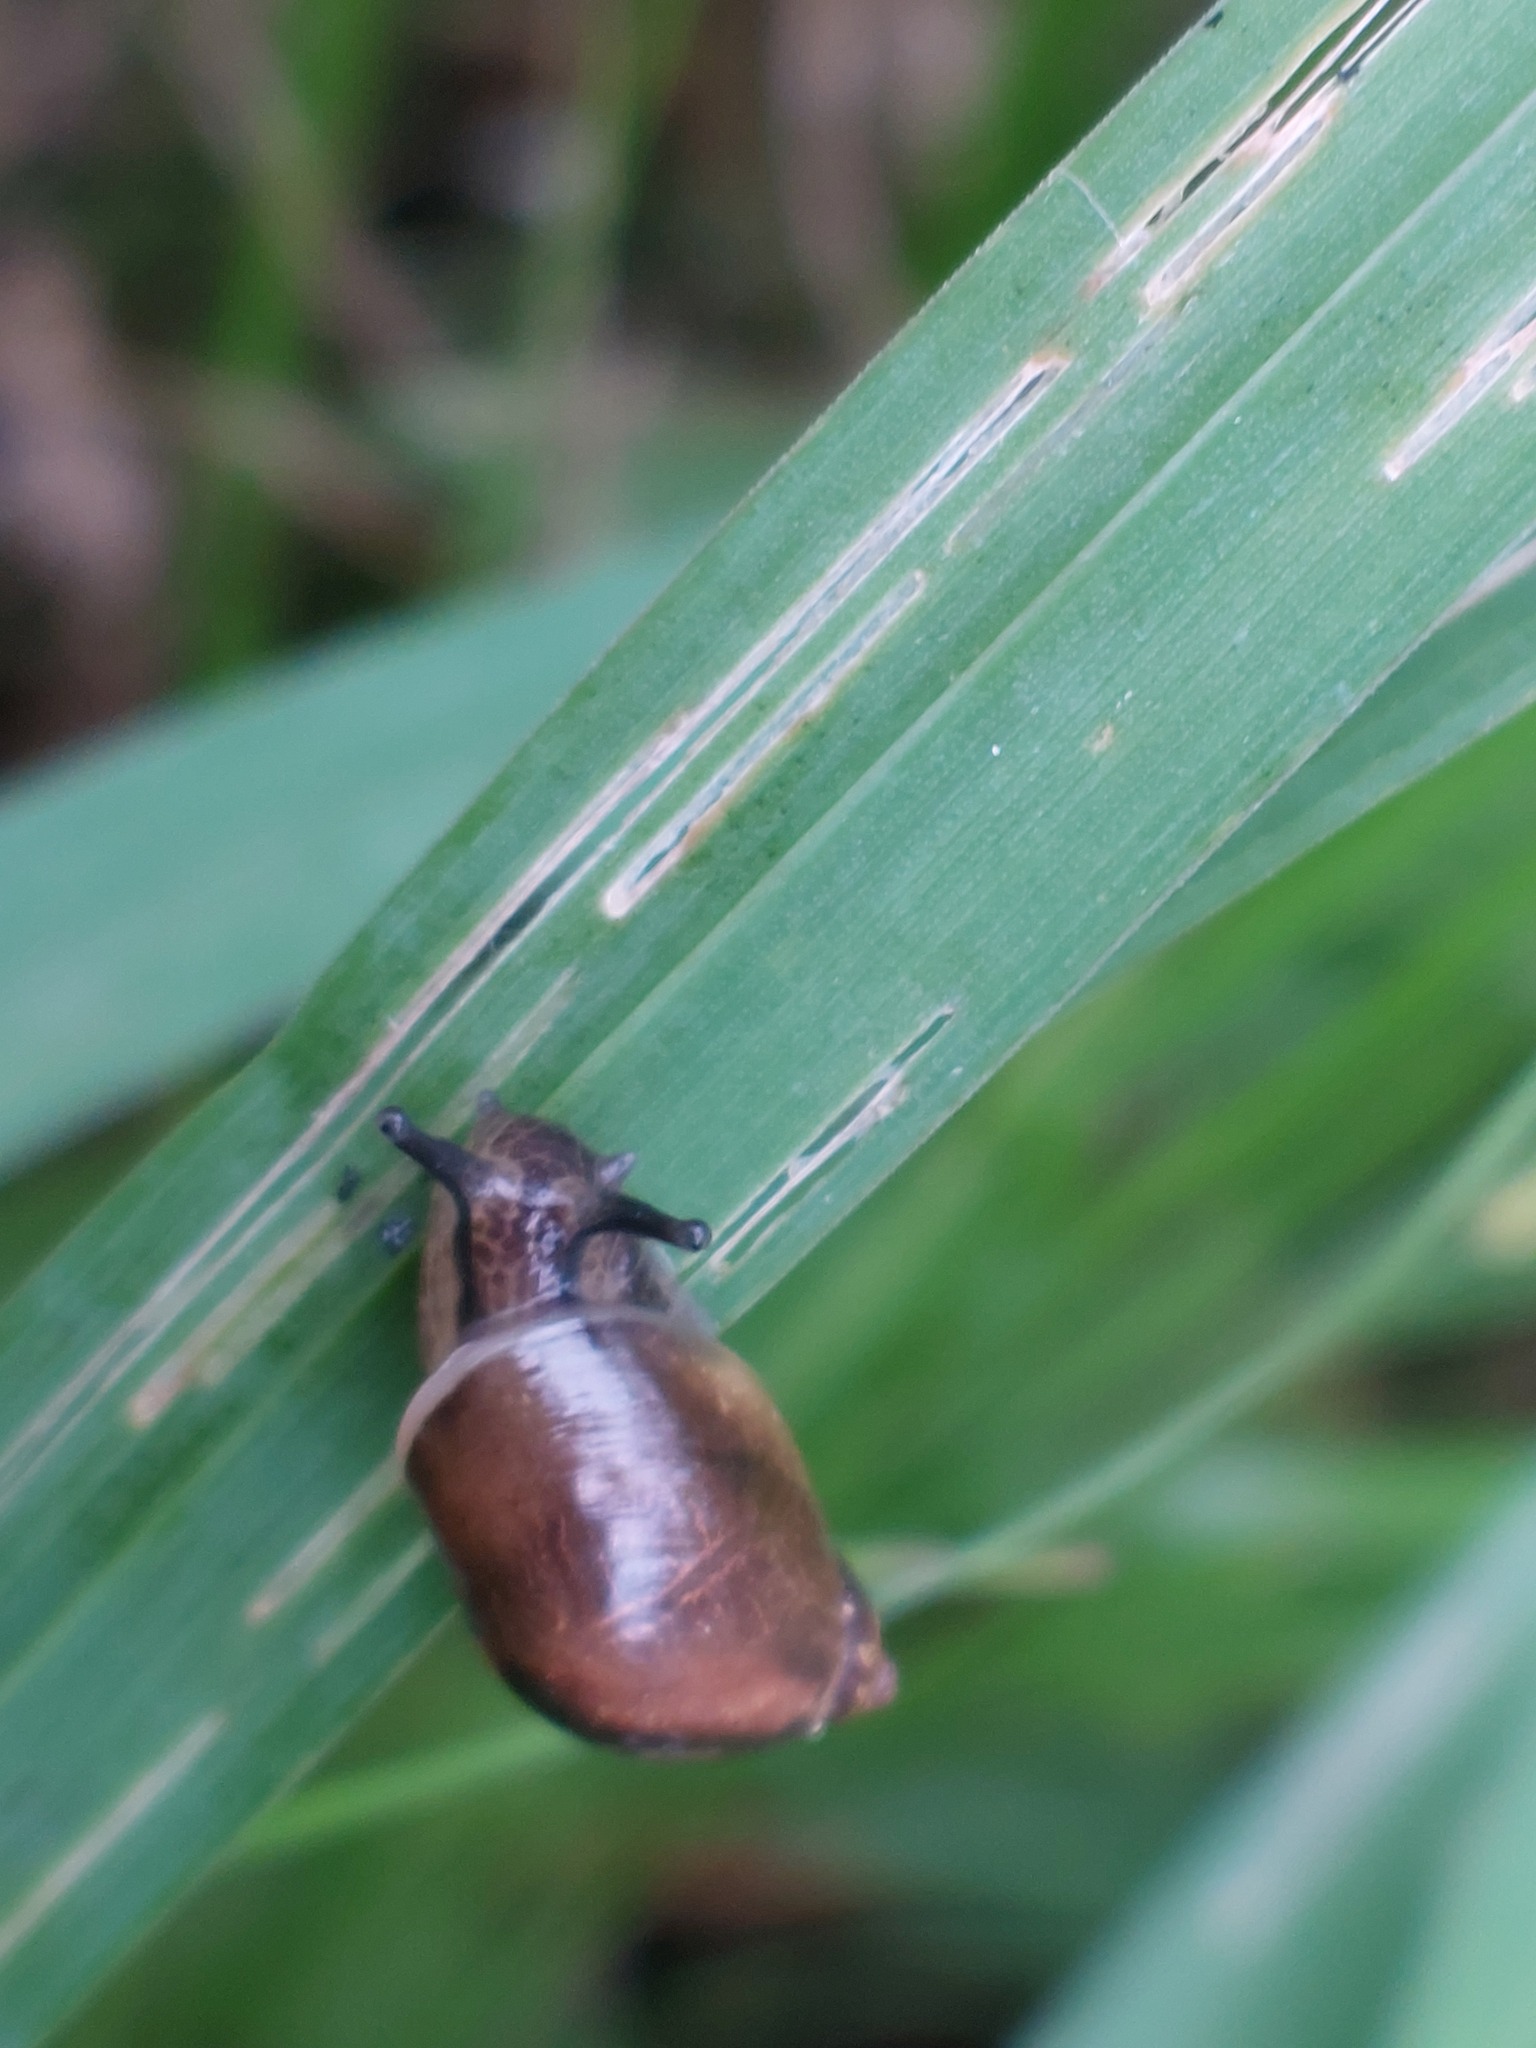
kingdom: Animalia
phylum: Mollusca
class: Gastropoda
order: Stylommatophora
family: Succineidae
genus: Succinea
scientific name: Succinea putris
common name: European ambersnail
